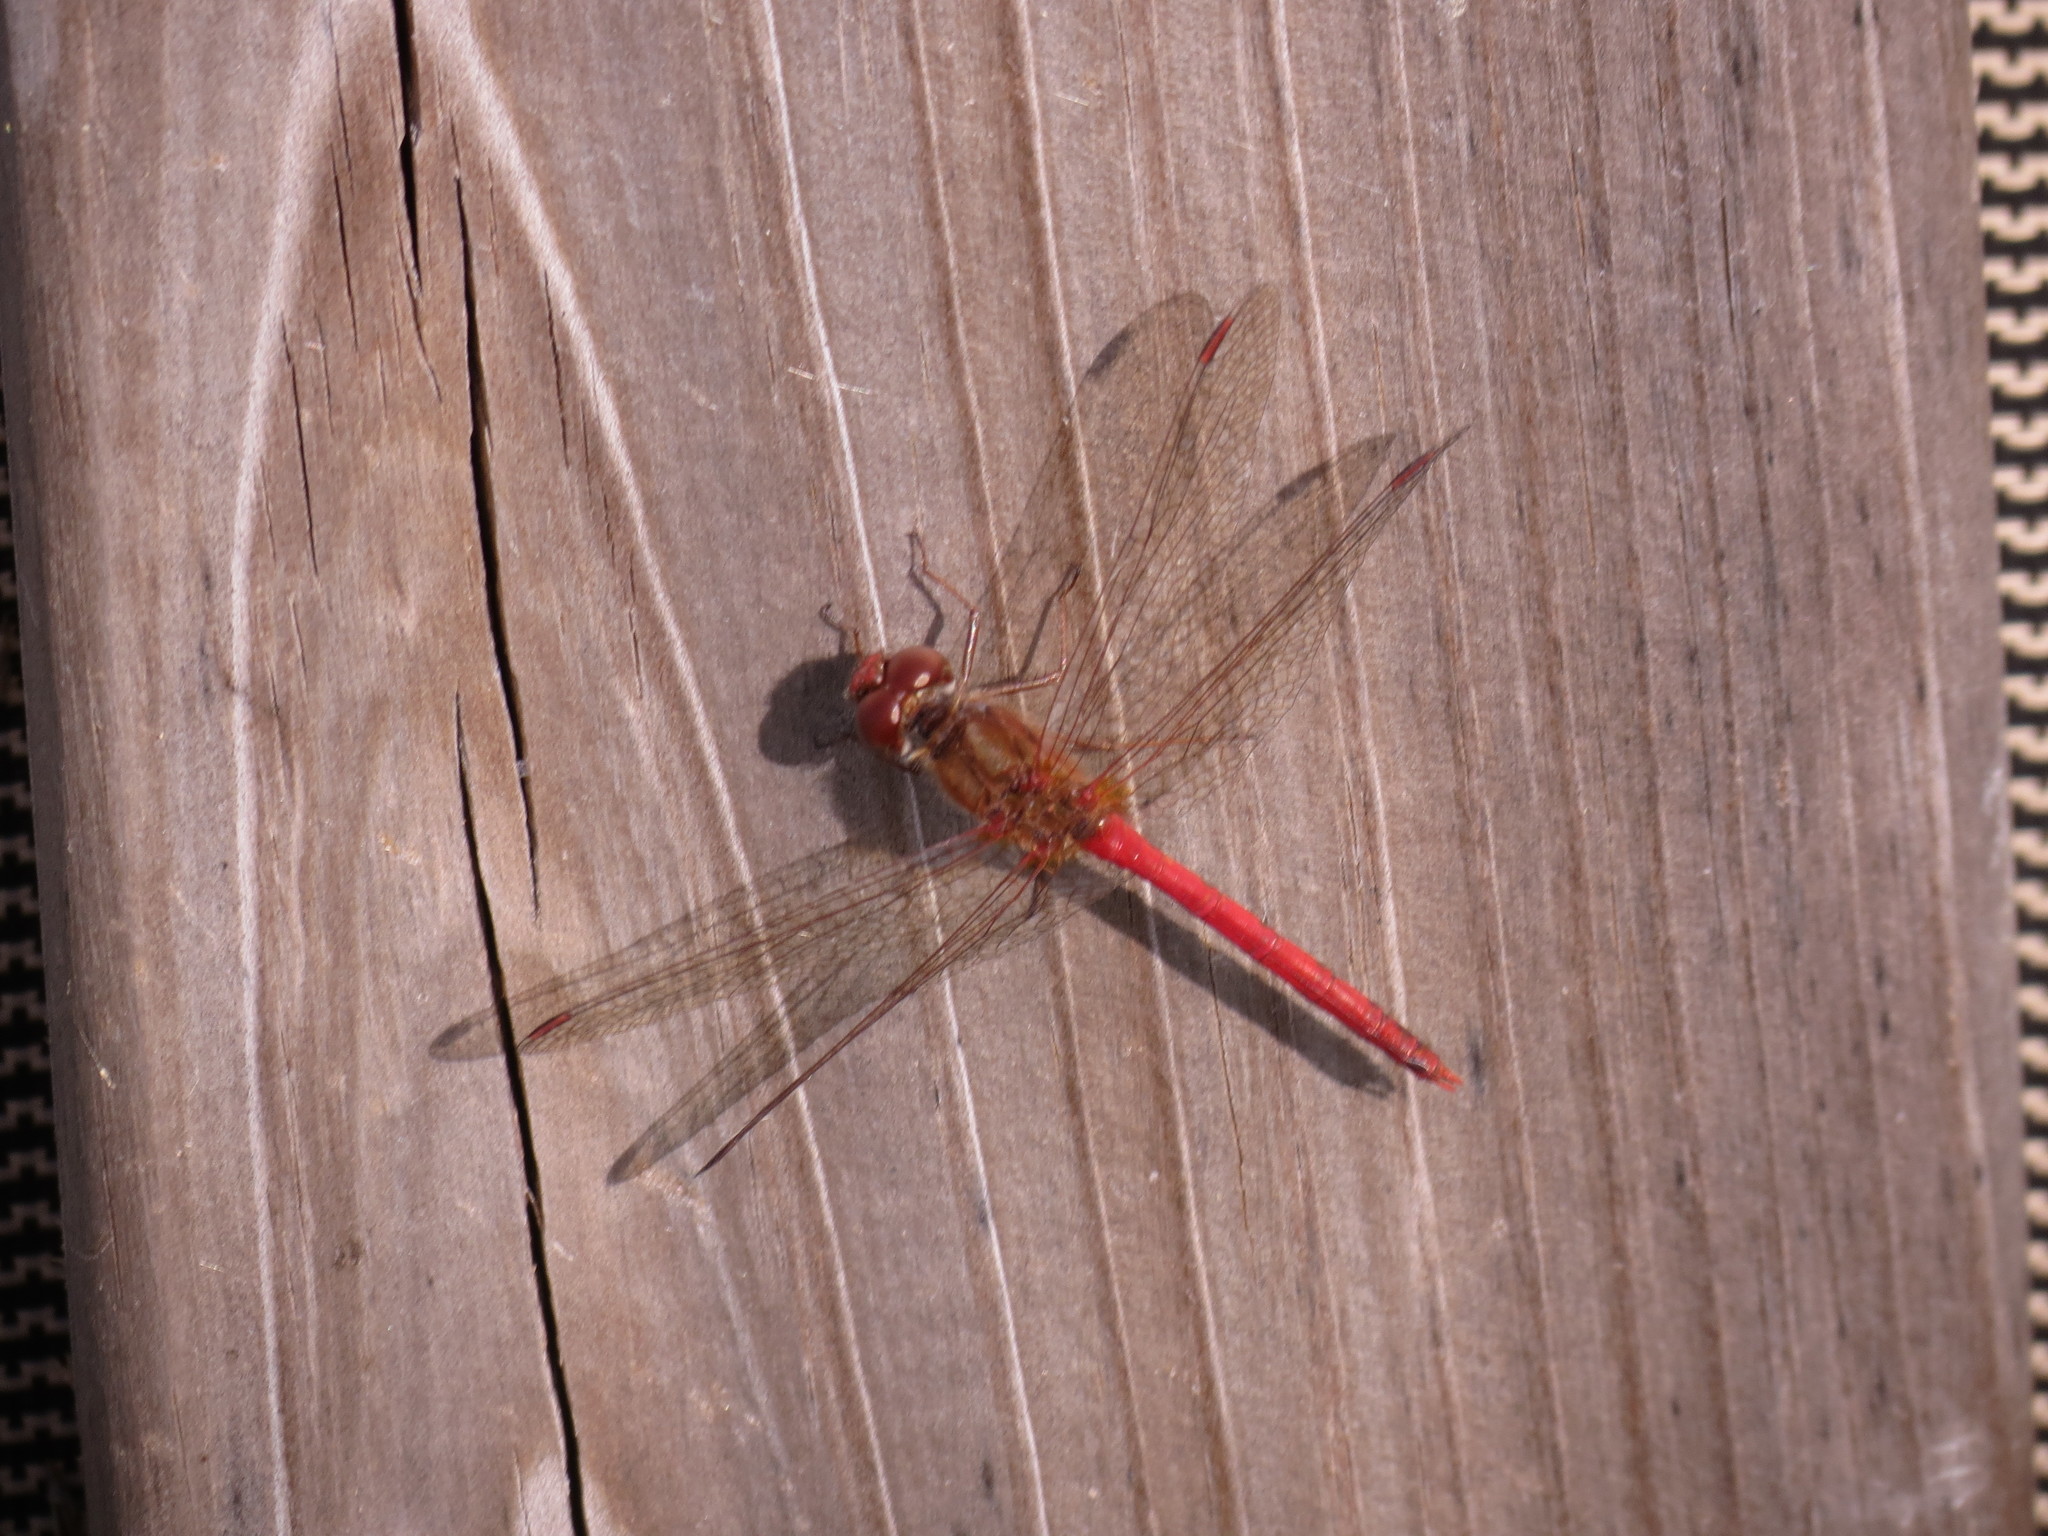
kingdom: Animalia
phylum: Arthropoda
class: Insecta
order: Odonata
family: Libellulidae
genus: Sympetrum
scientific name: Sympetrum vicinum
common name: Autumn meadowhawk
